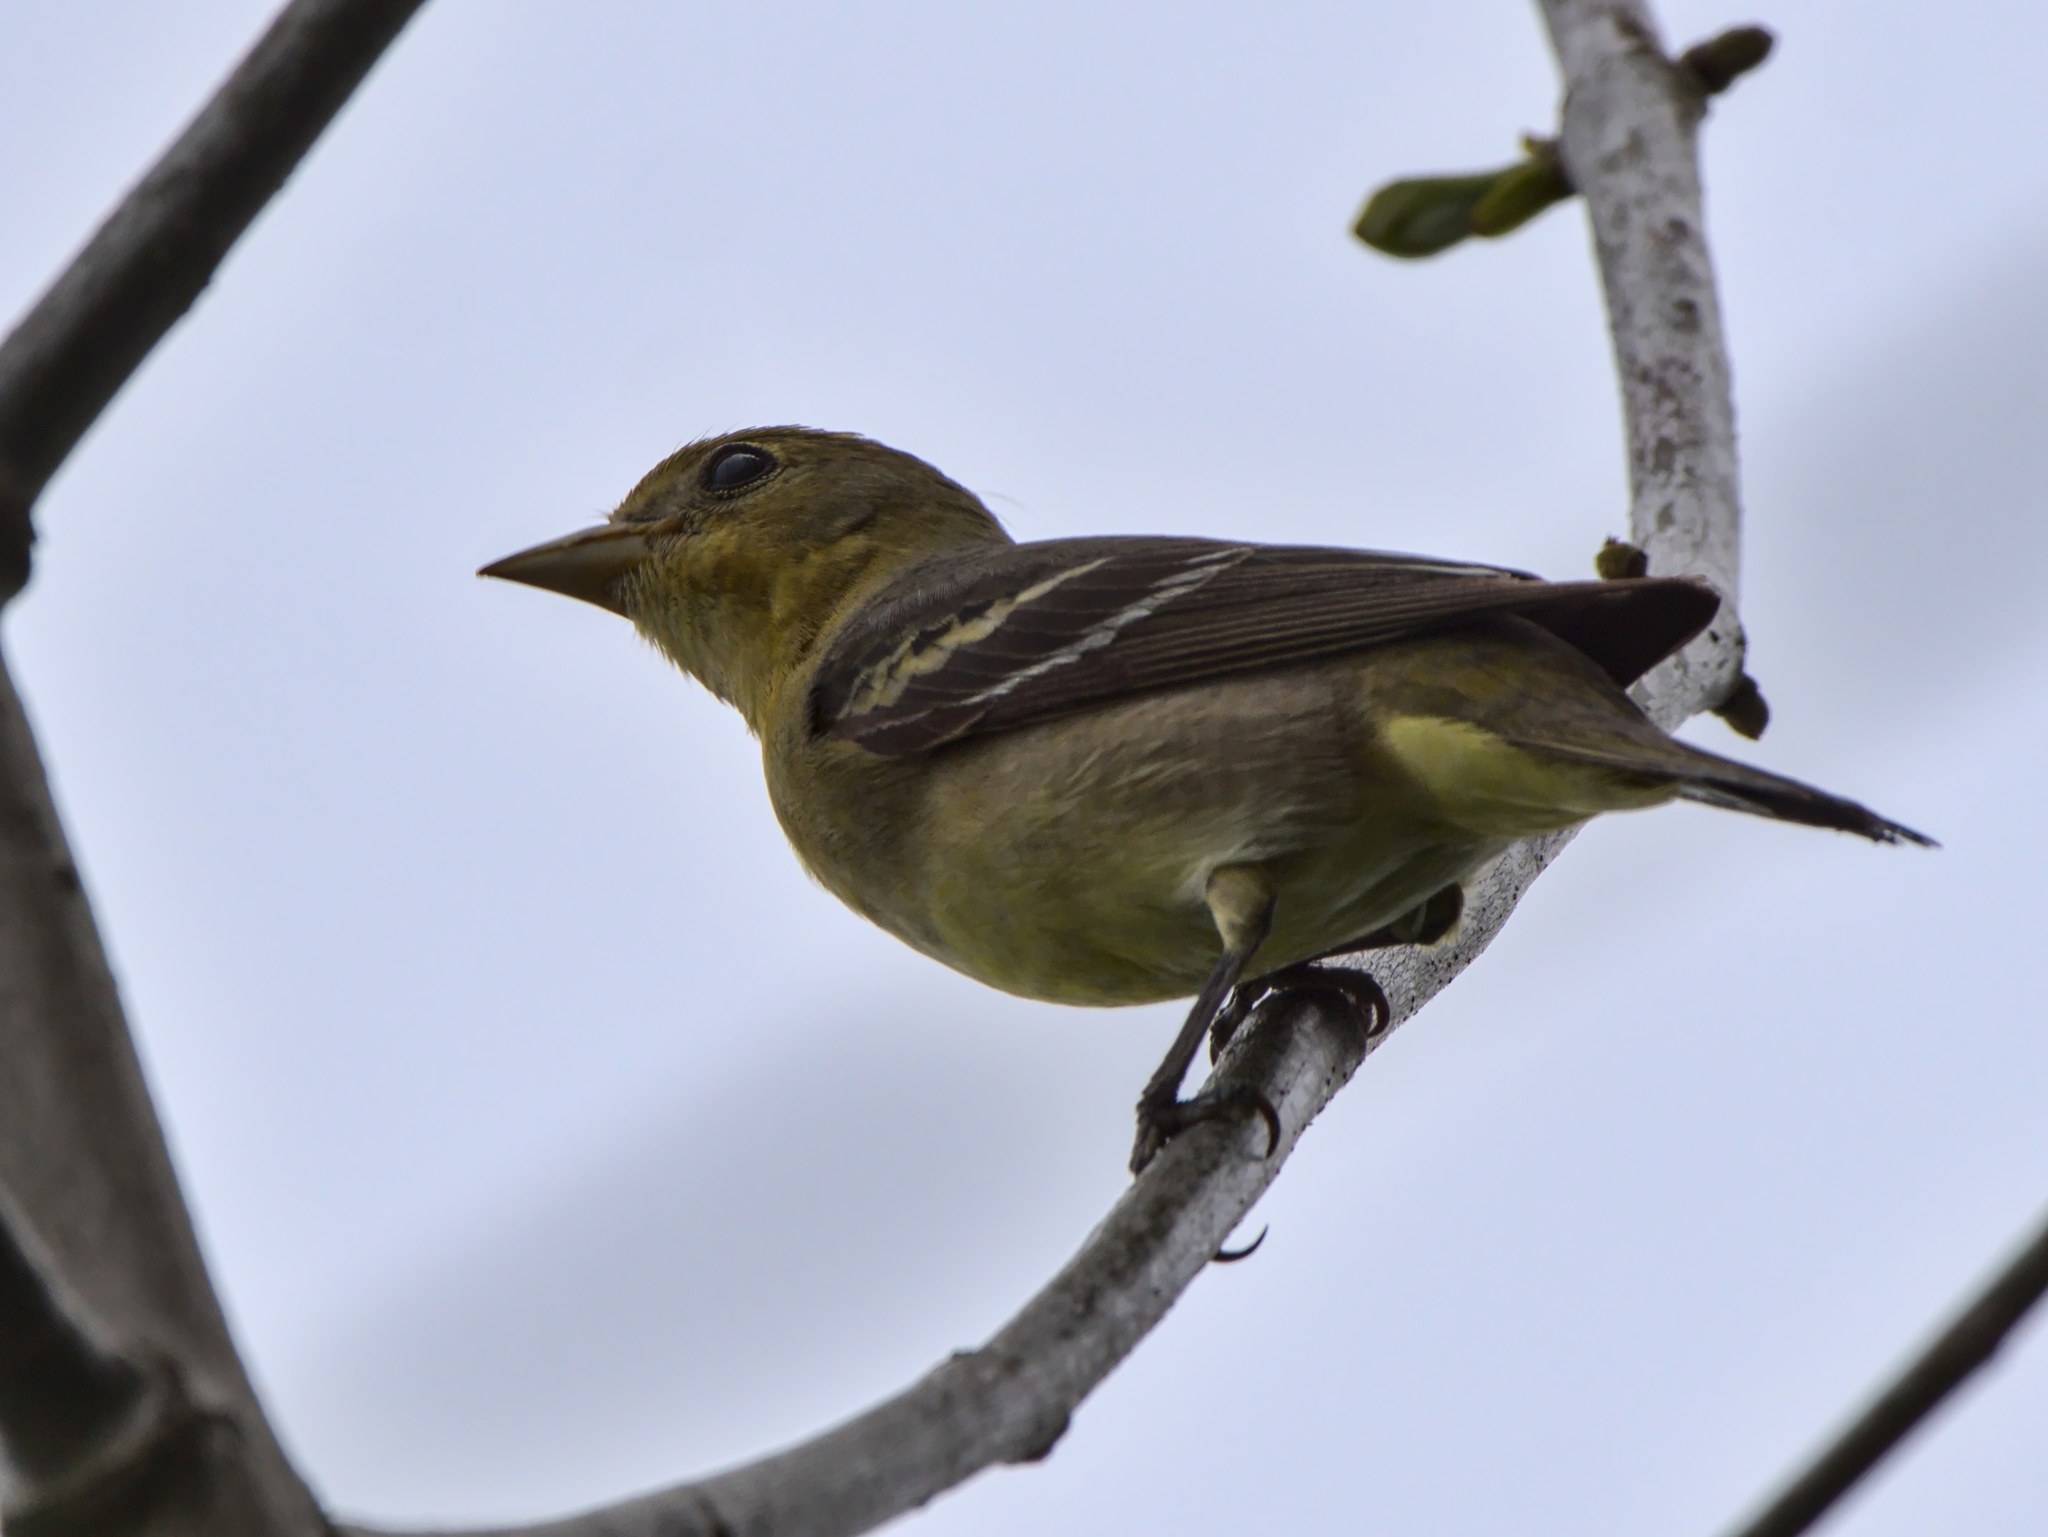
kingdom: Animalia
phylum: Chordata
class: Aves
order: Passeriformes
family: Cardinalidae
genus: Piranga
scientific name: Piranga ludoviciana
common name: Western tanager
